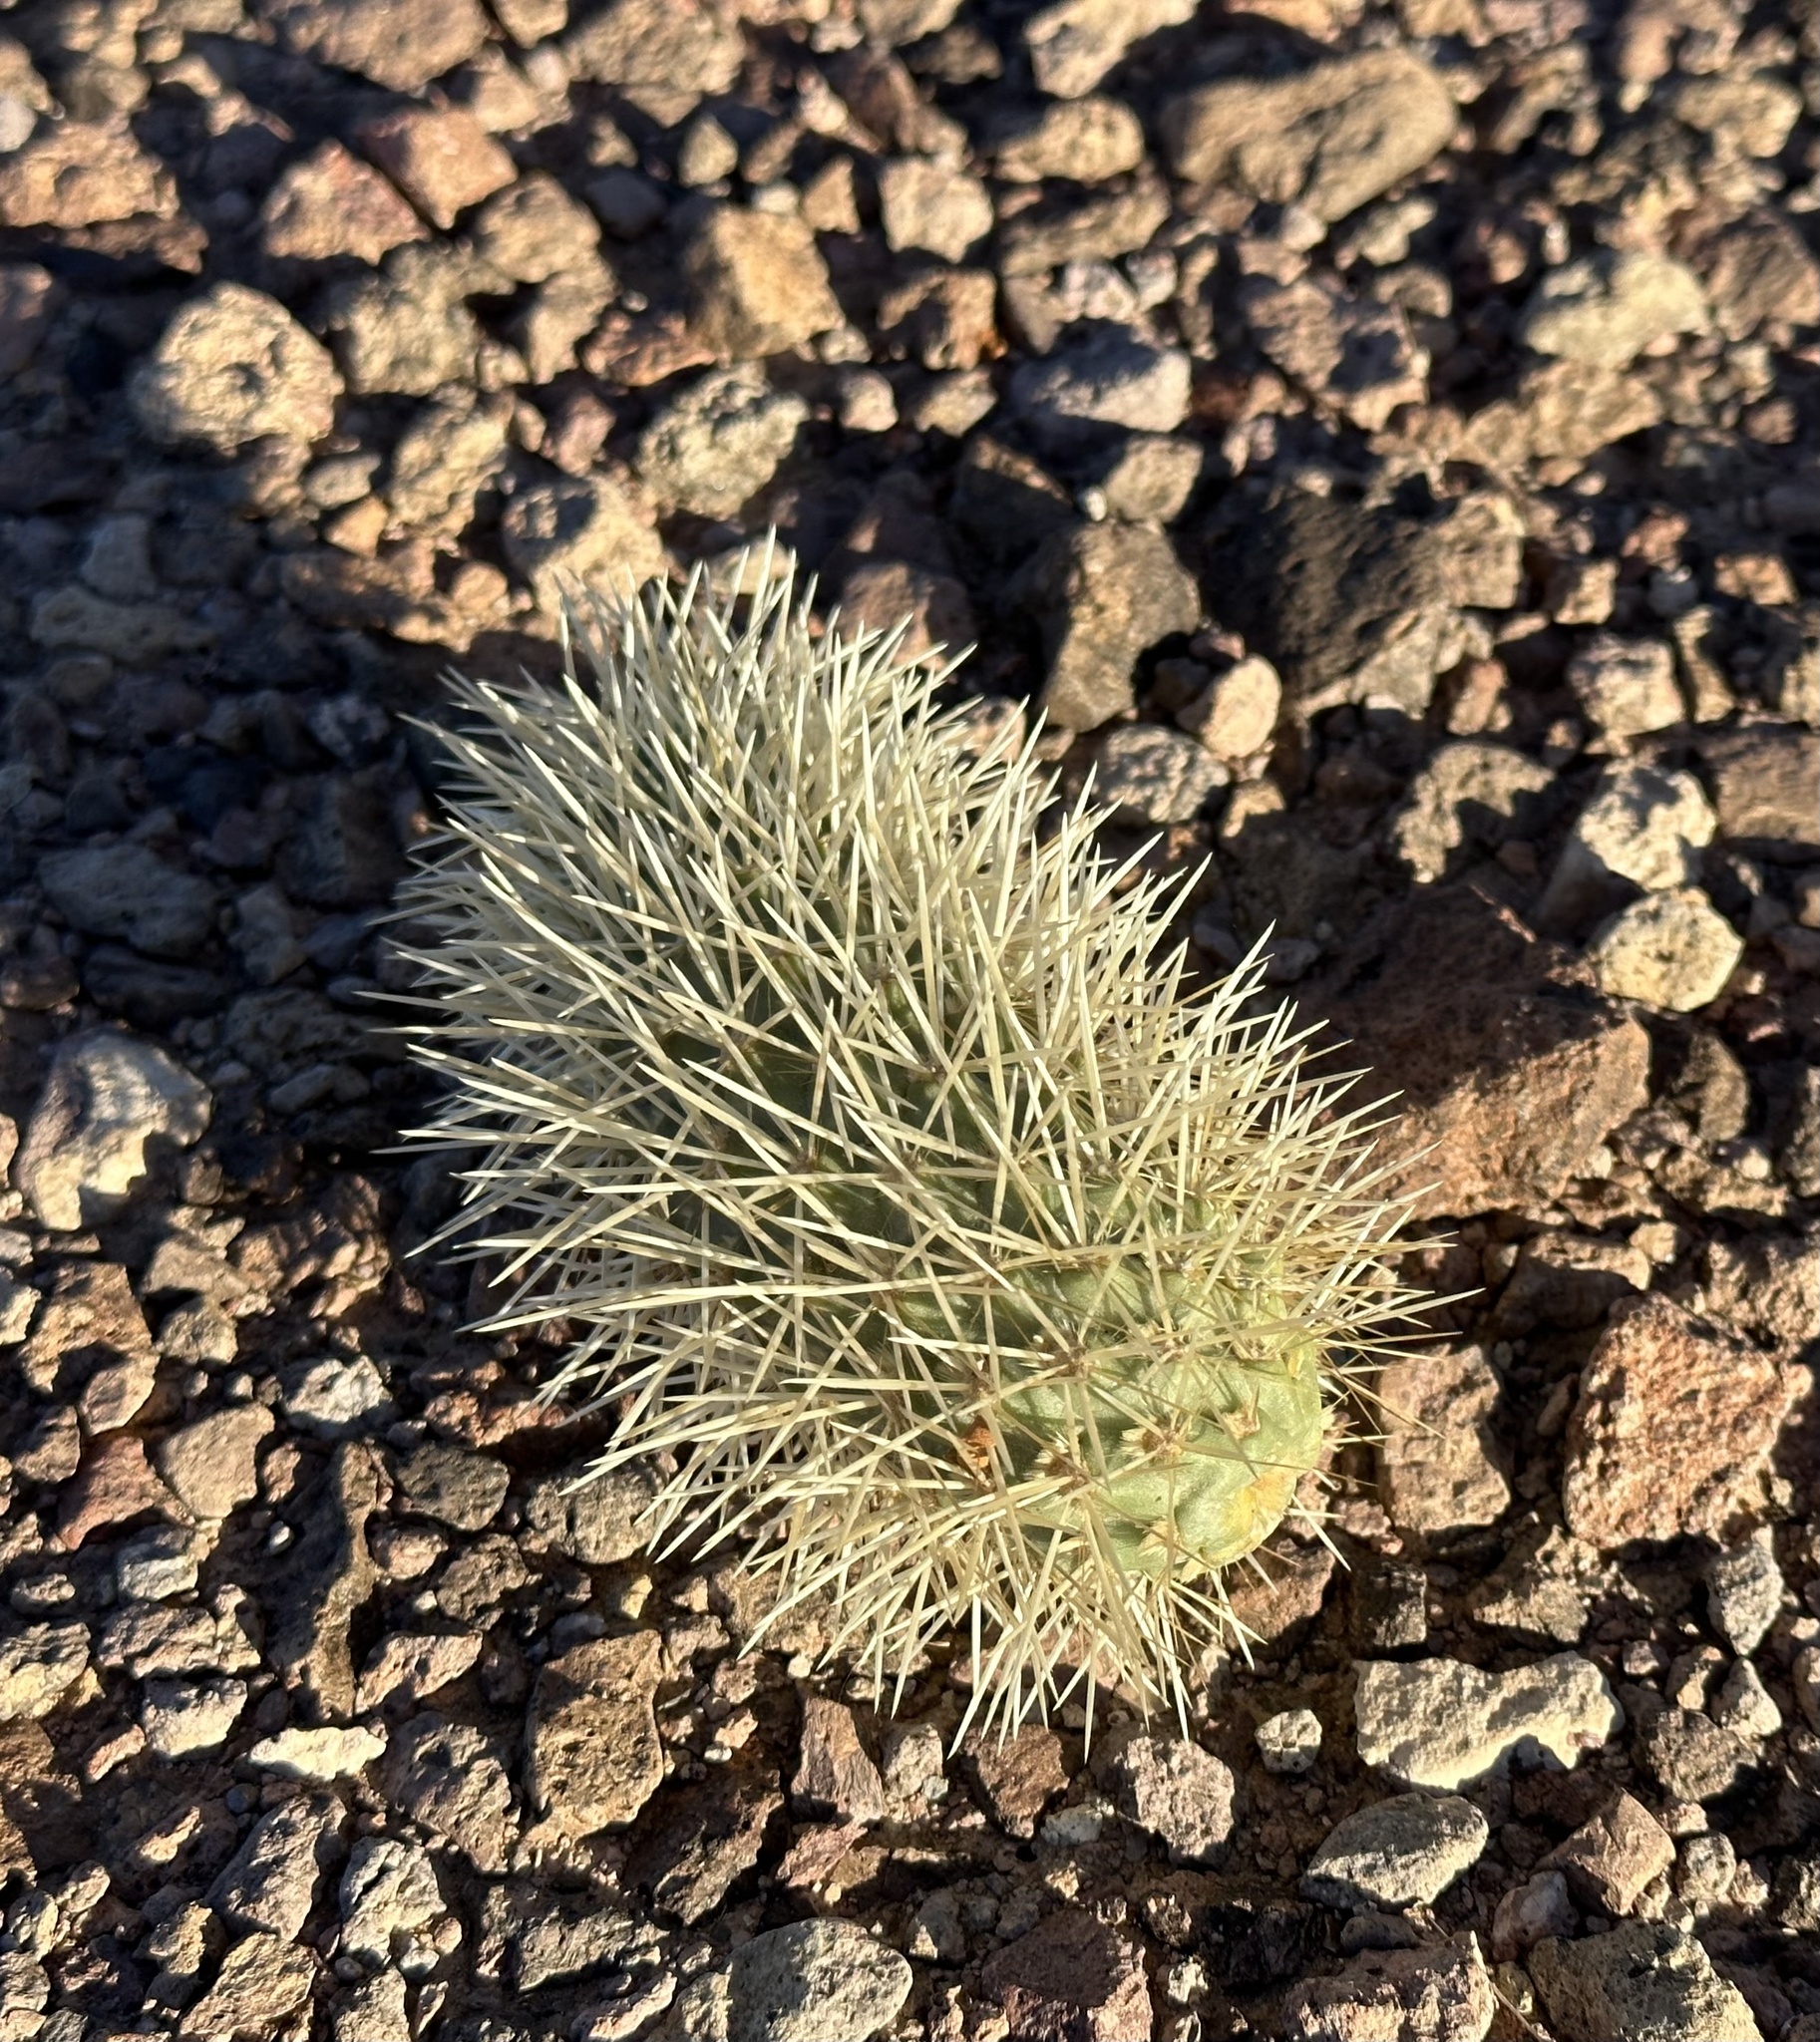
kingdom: Plantae
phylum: Tracheophyta
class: Magnoliopsida
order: Caryophyllales
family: Cactaceae
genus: Cylindropuntia
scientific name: Cylindropuntia fosbergii
